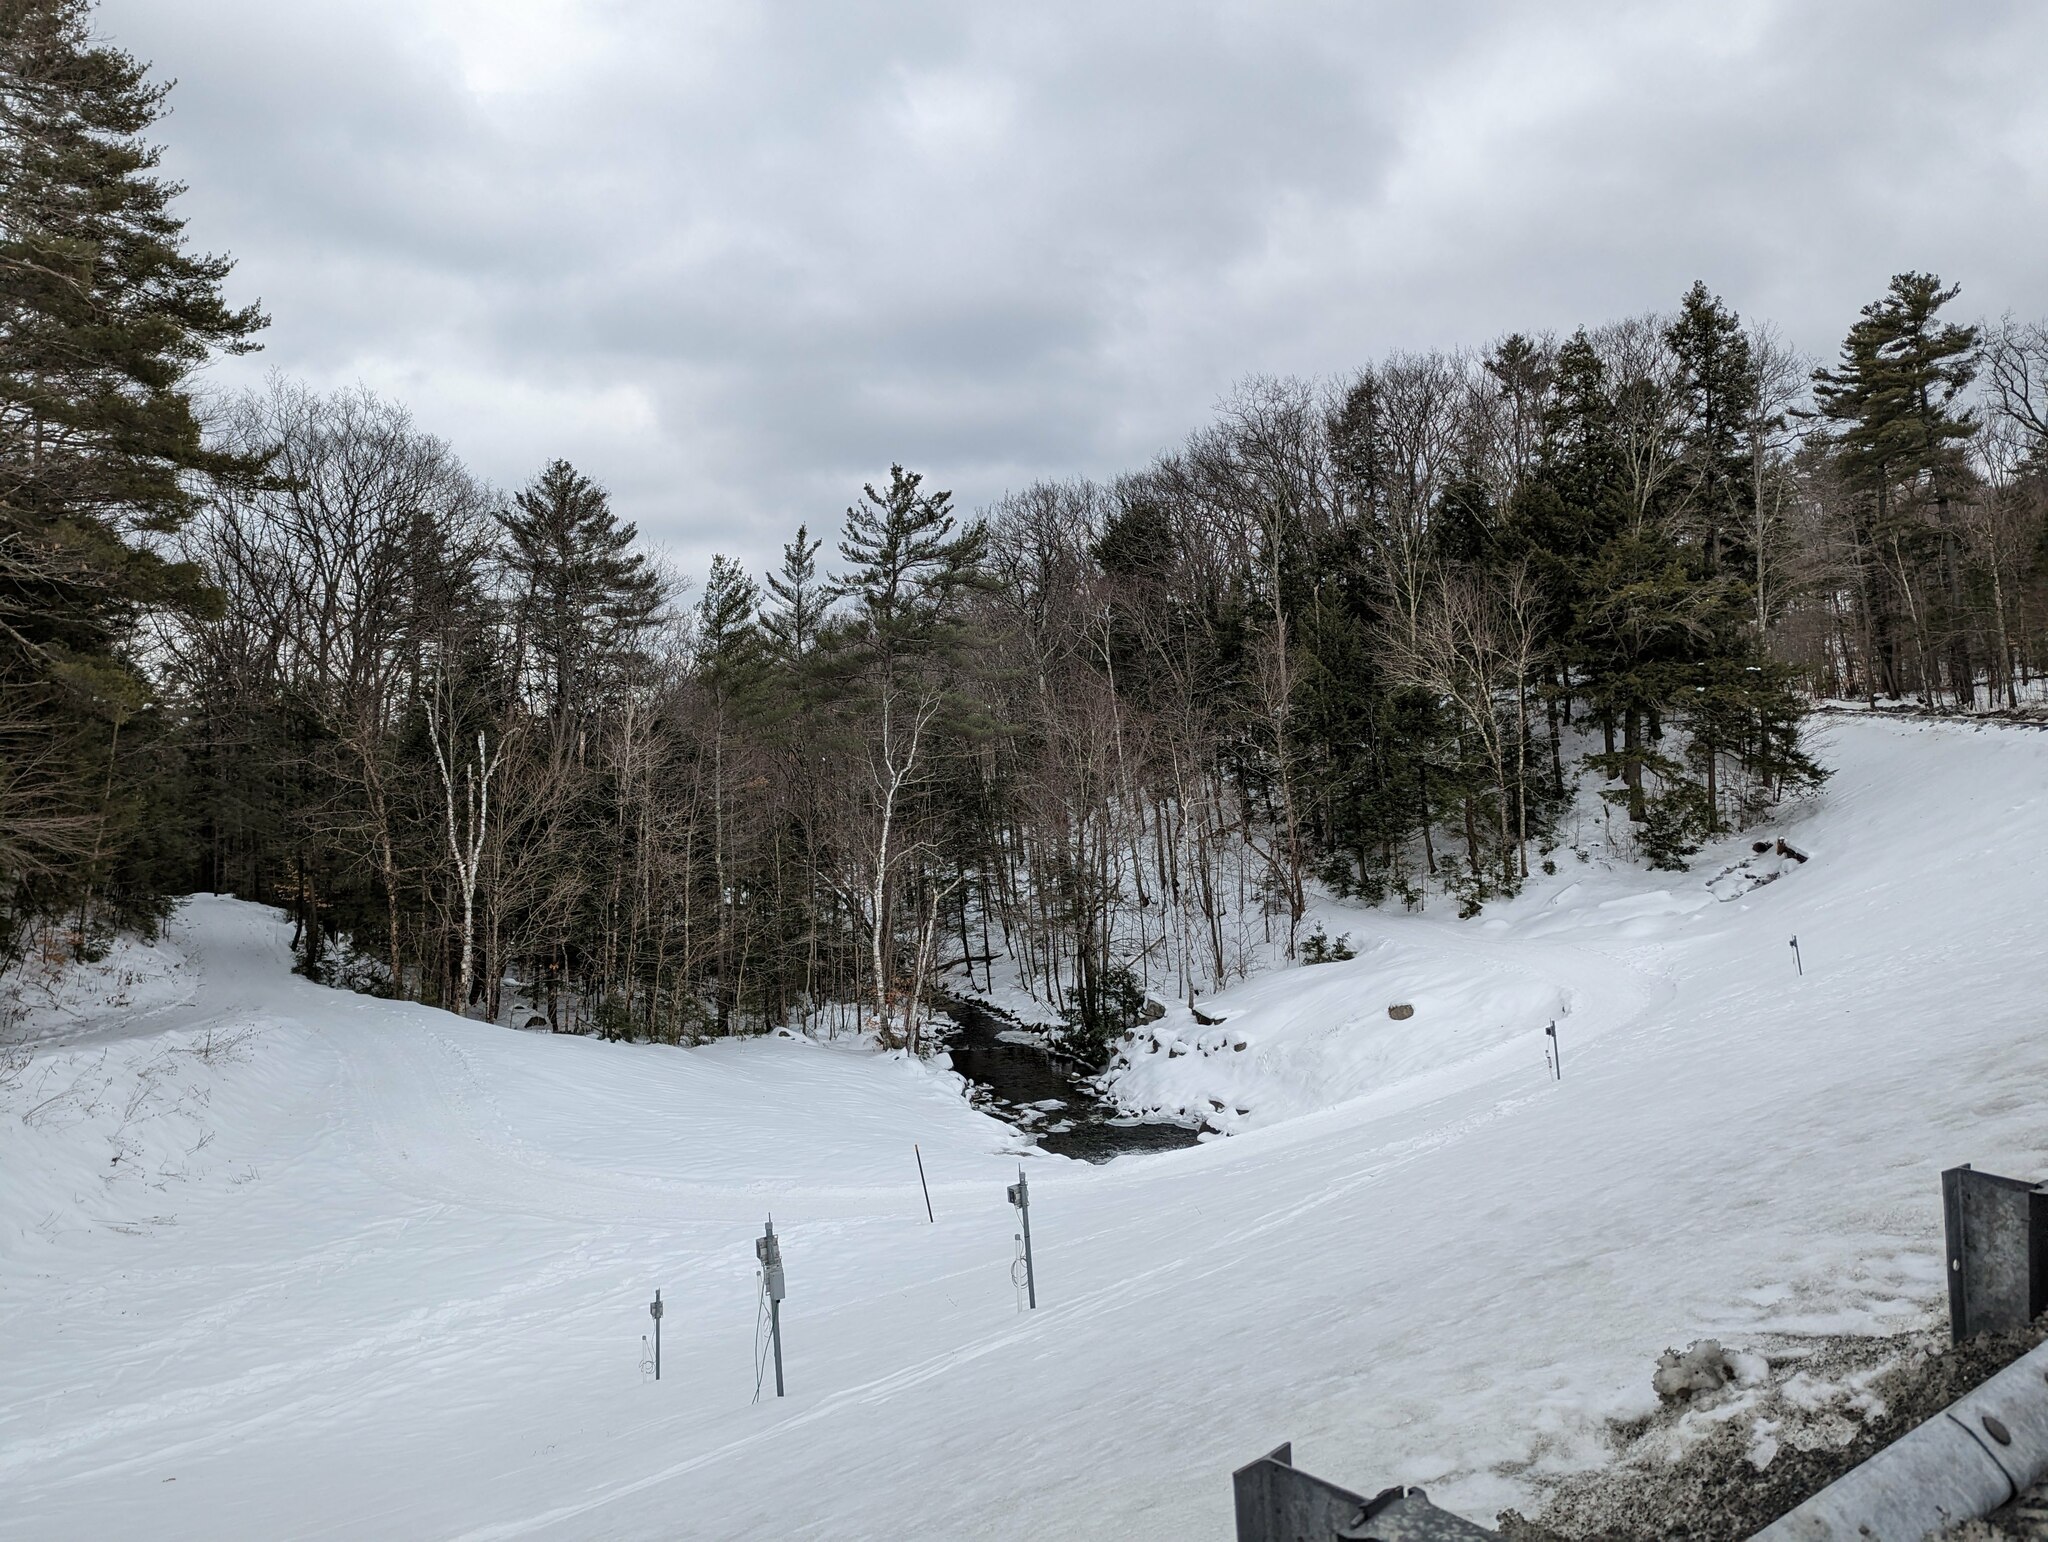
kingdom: Plantae
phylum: Tracheophyta
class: Pinopsida
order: Pinales
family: Pinaceae
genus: Pinus
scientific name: Pinus strobus
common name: Weymouth pine
